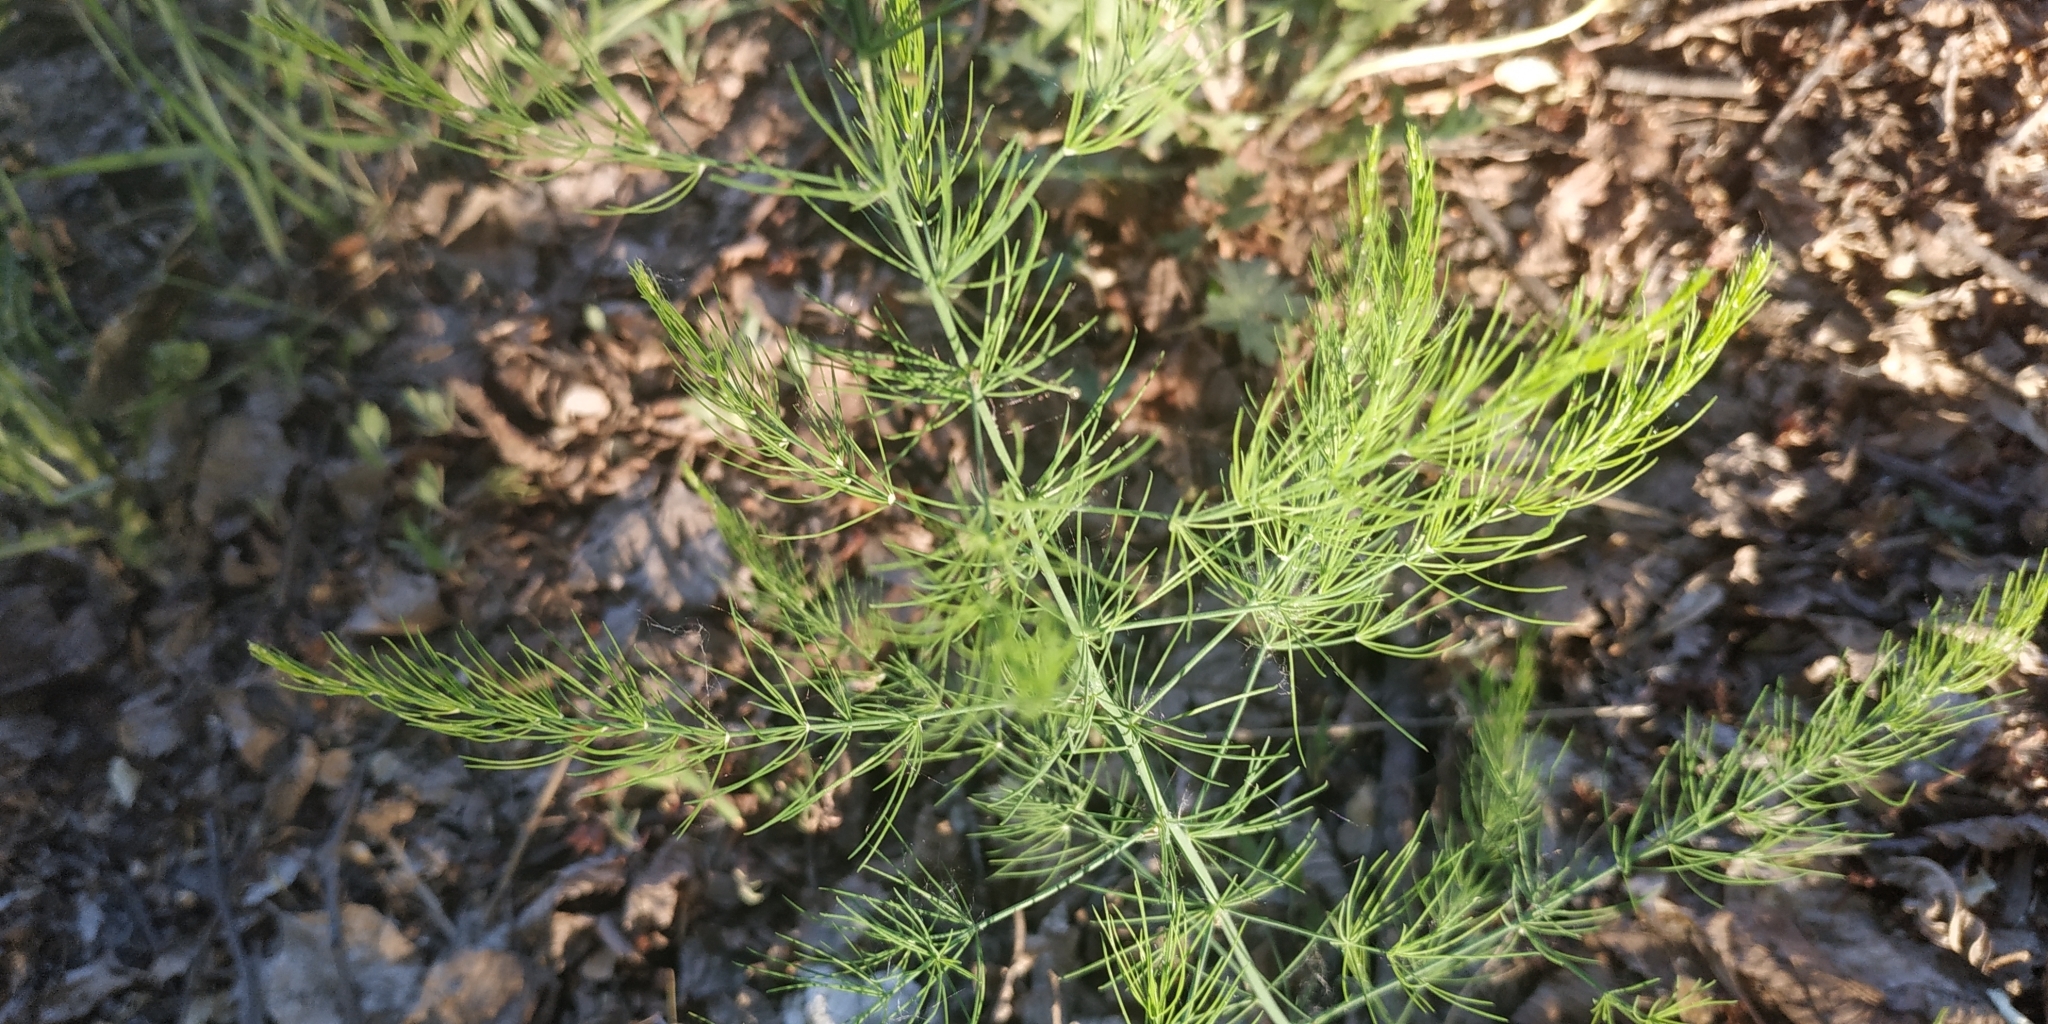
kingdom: Plantae
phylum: Tracheophyta
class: Liliopsida
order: Asparagales
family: Asparagaceae
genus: Asparagus
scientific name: Asparagus officinalis
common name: Garden asparagus
